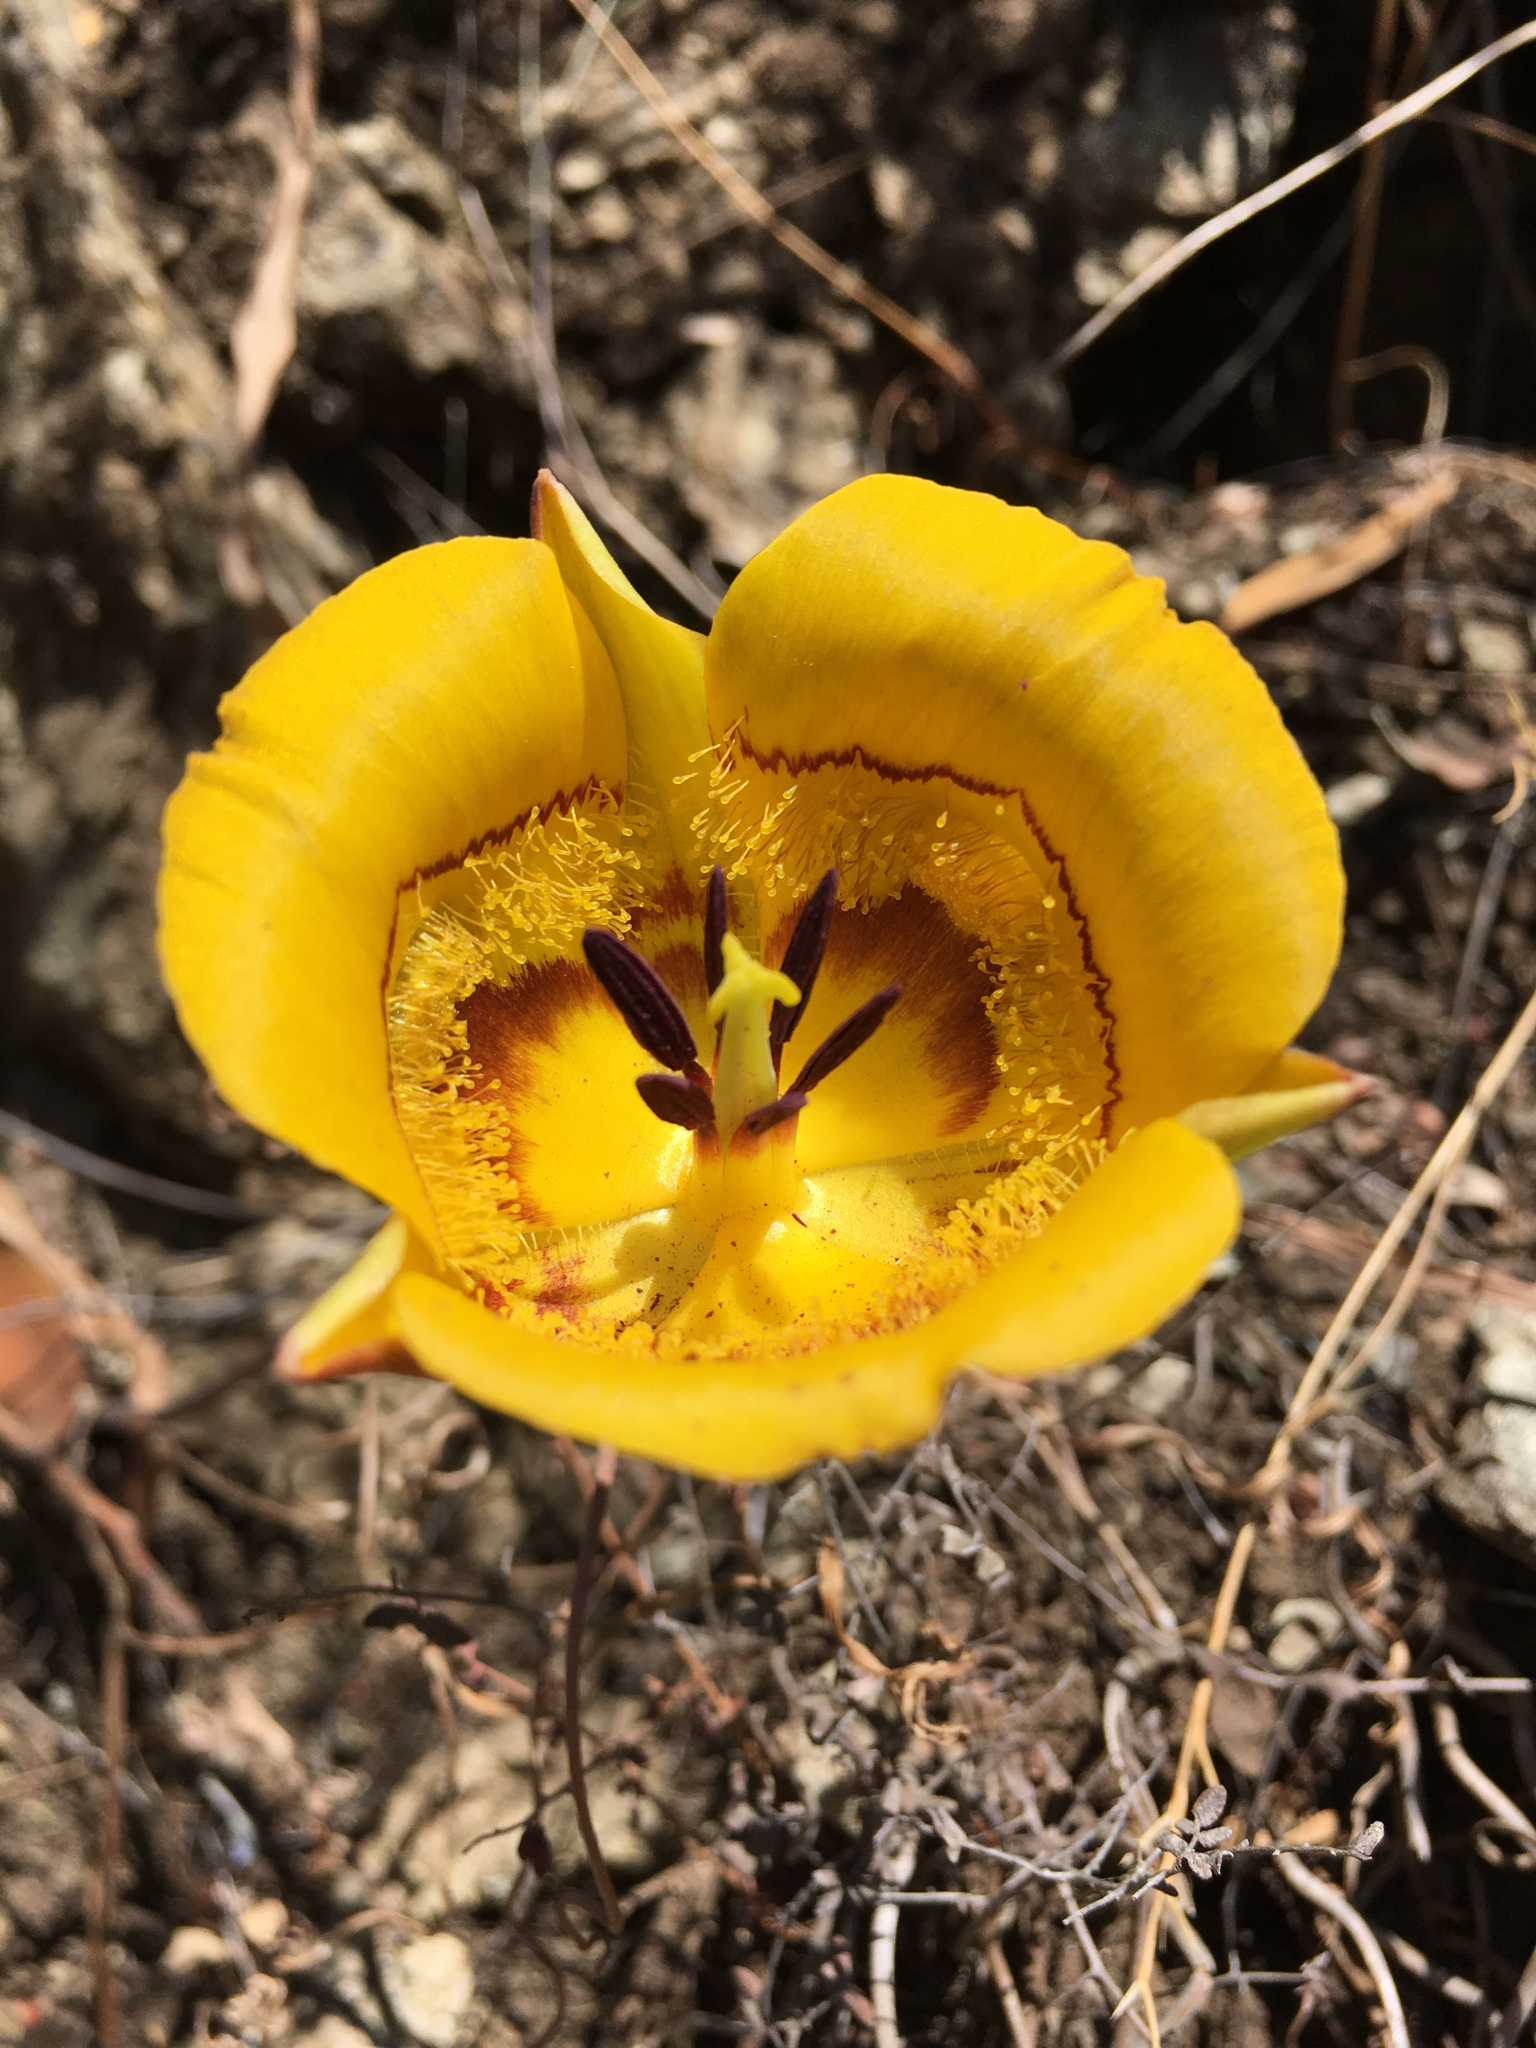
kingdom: Plantae
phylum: Tracheophyta
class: Liliopsida
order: Liliales
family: Liliaceae
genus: Calochortus
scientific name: Calochortus clavatus
